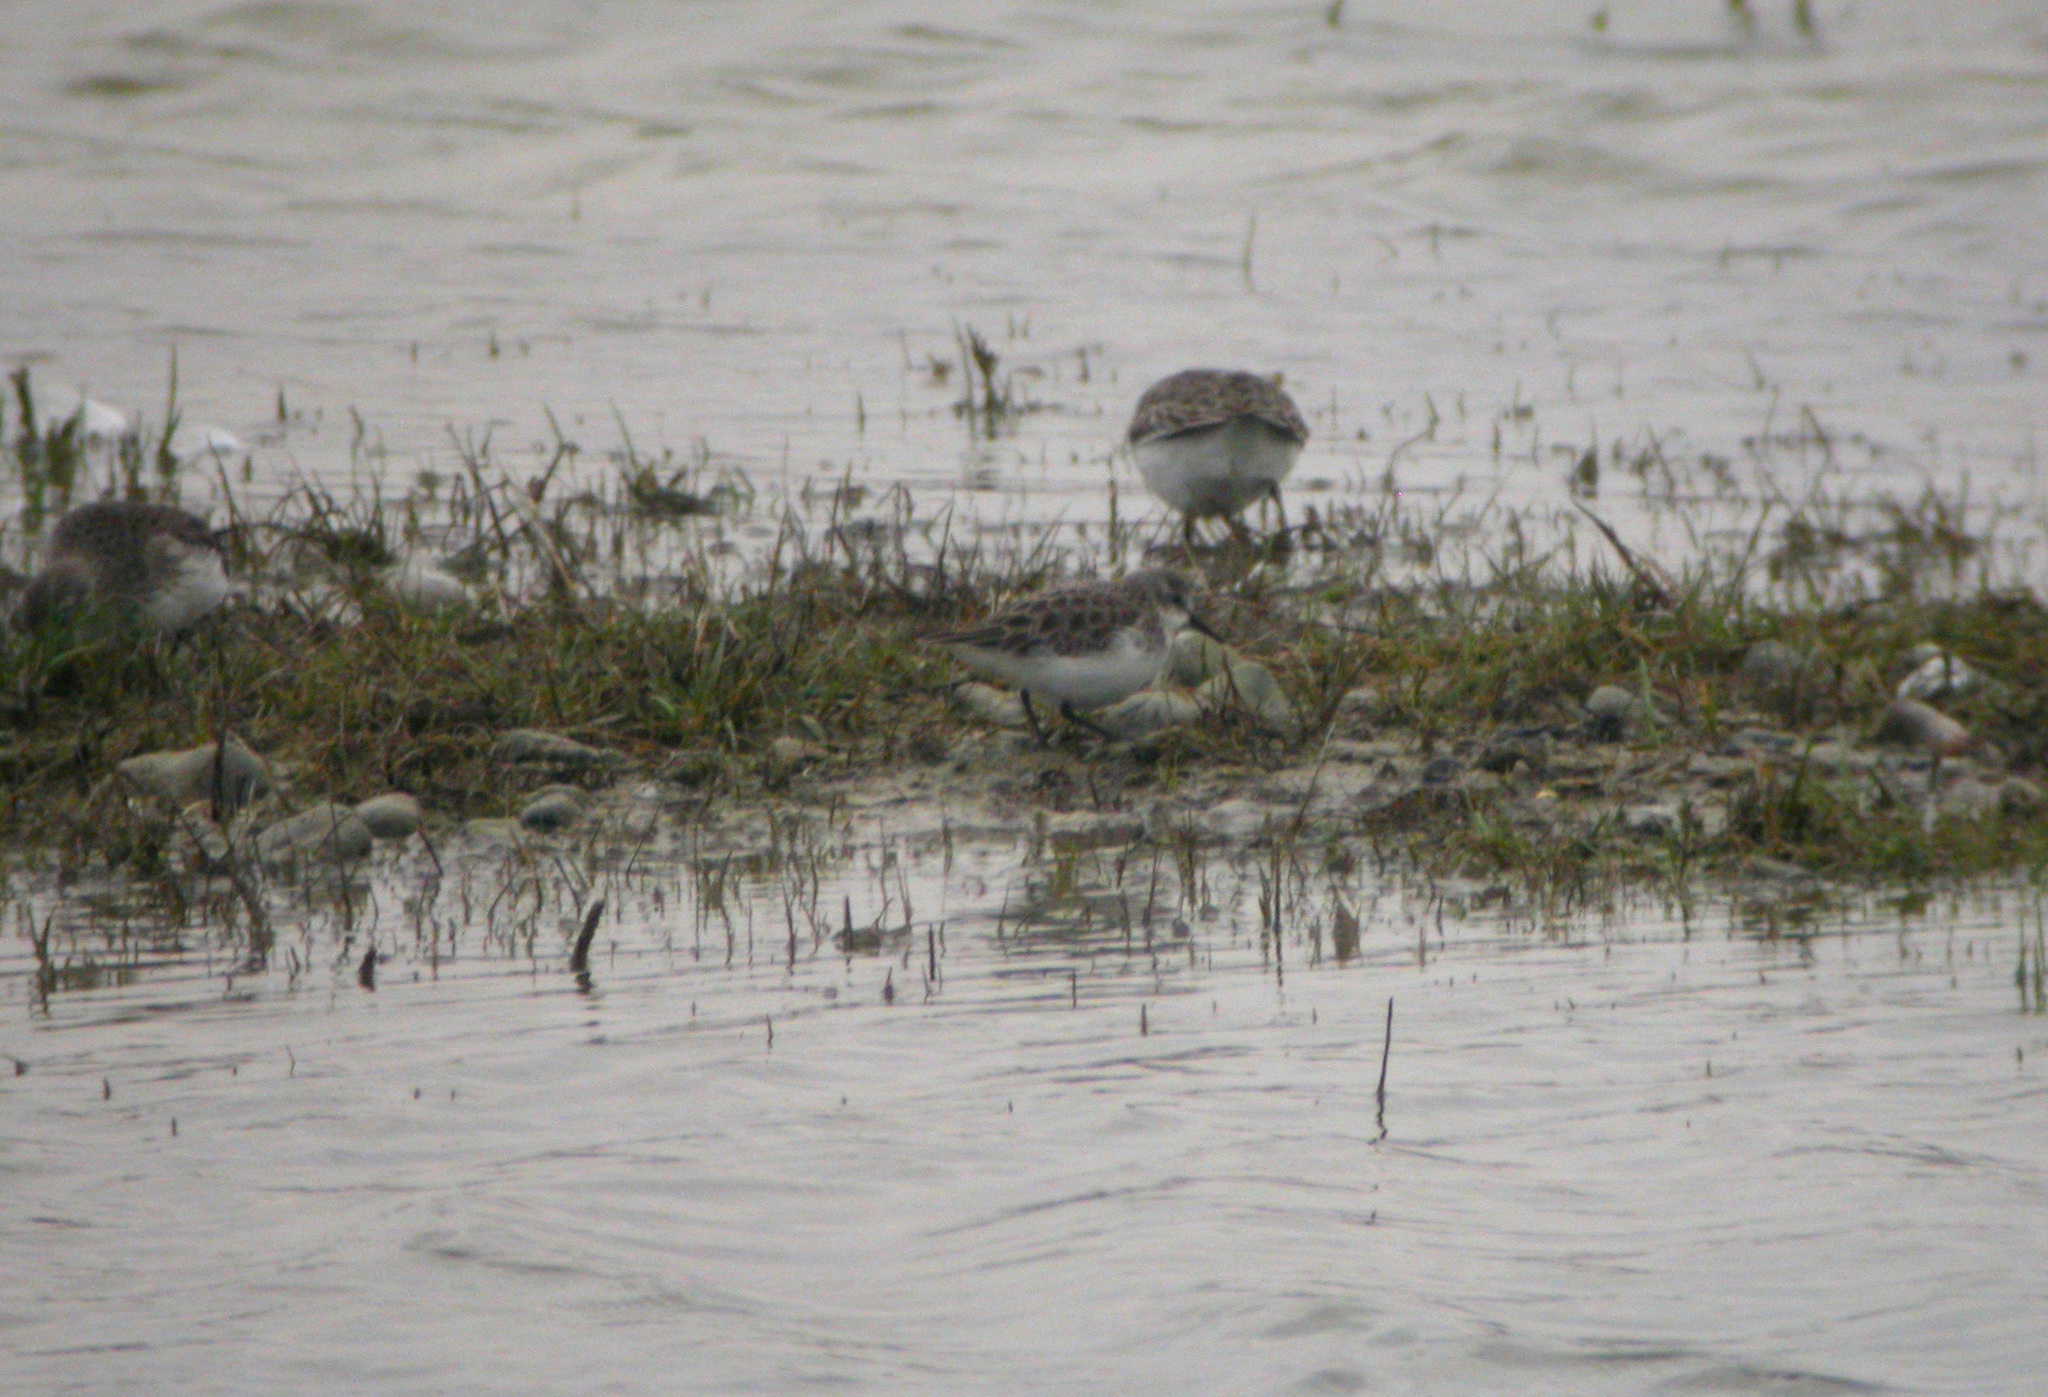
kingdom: Animalia
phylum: Chordata
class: Aves
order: Charadriiformes
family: Scolopacidae
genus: Calidris
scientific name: Calidris minuta
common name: Little stint
